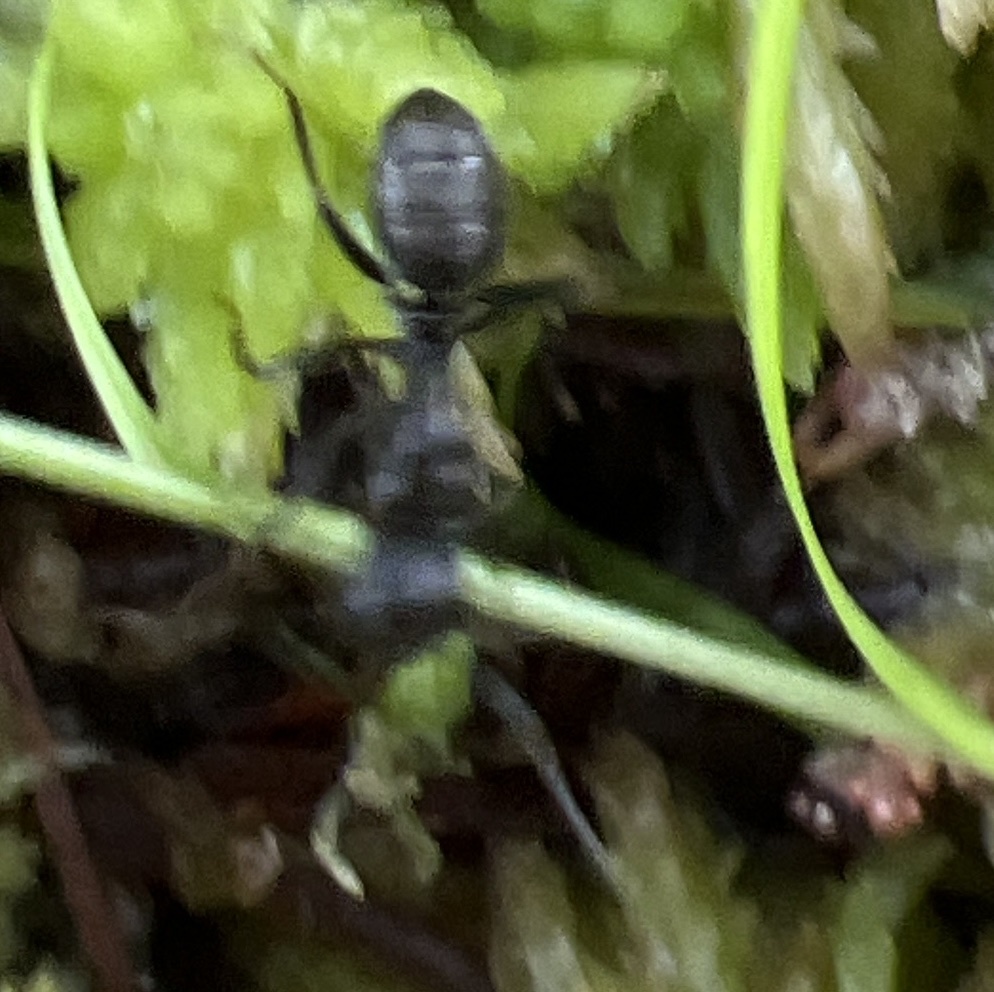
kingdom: Animalia
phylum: Arthropoda
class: Insecta
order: Hymenoptera
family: Formicidae
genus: Camponotus
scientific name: Camponotus pennsylvanicus
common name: Black carpenter ant
